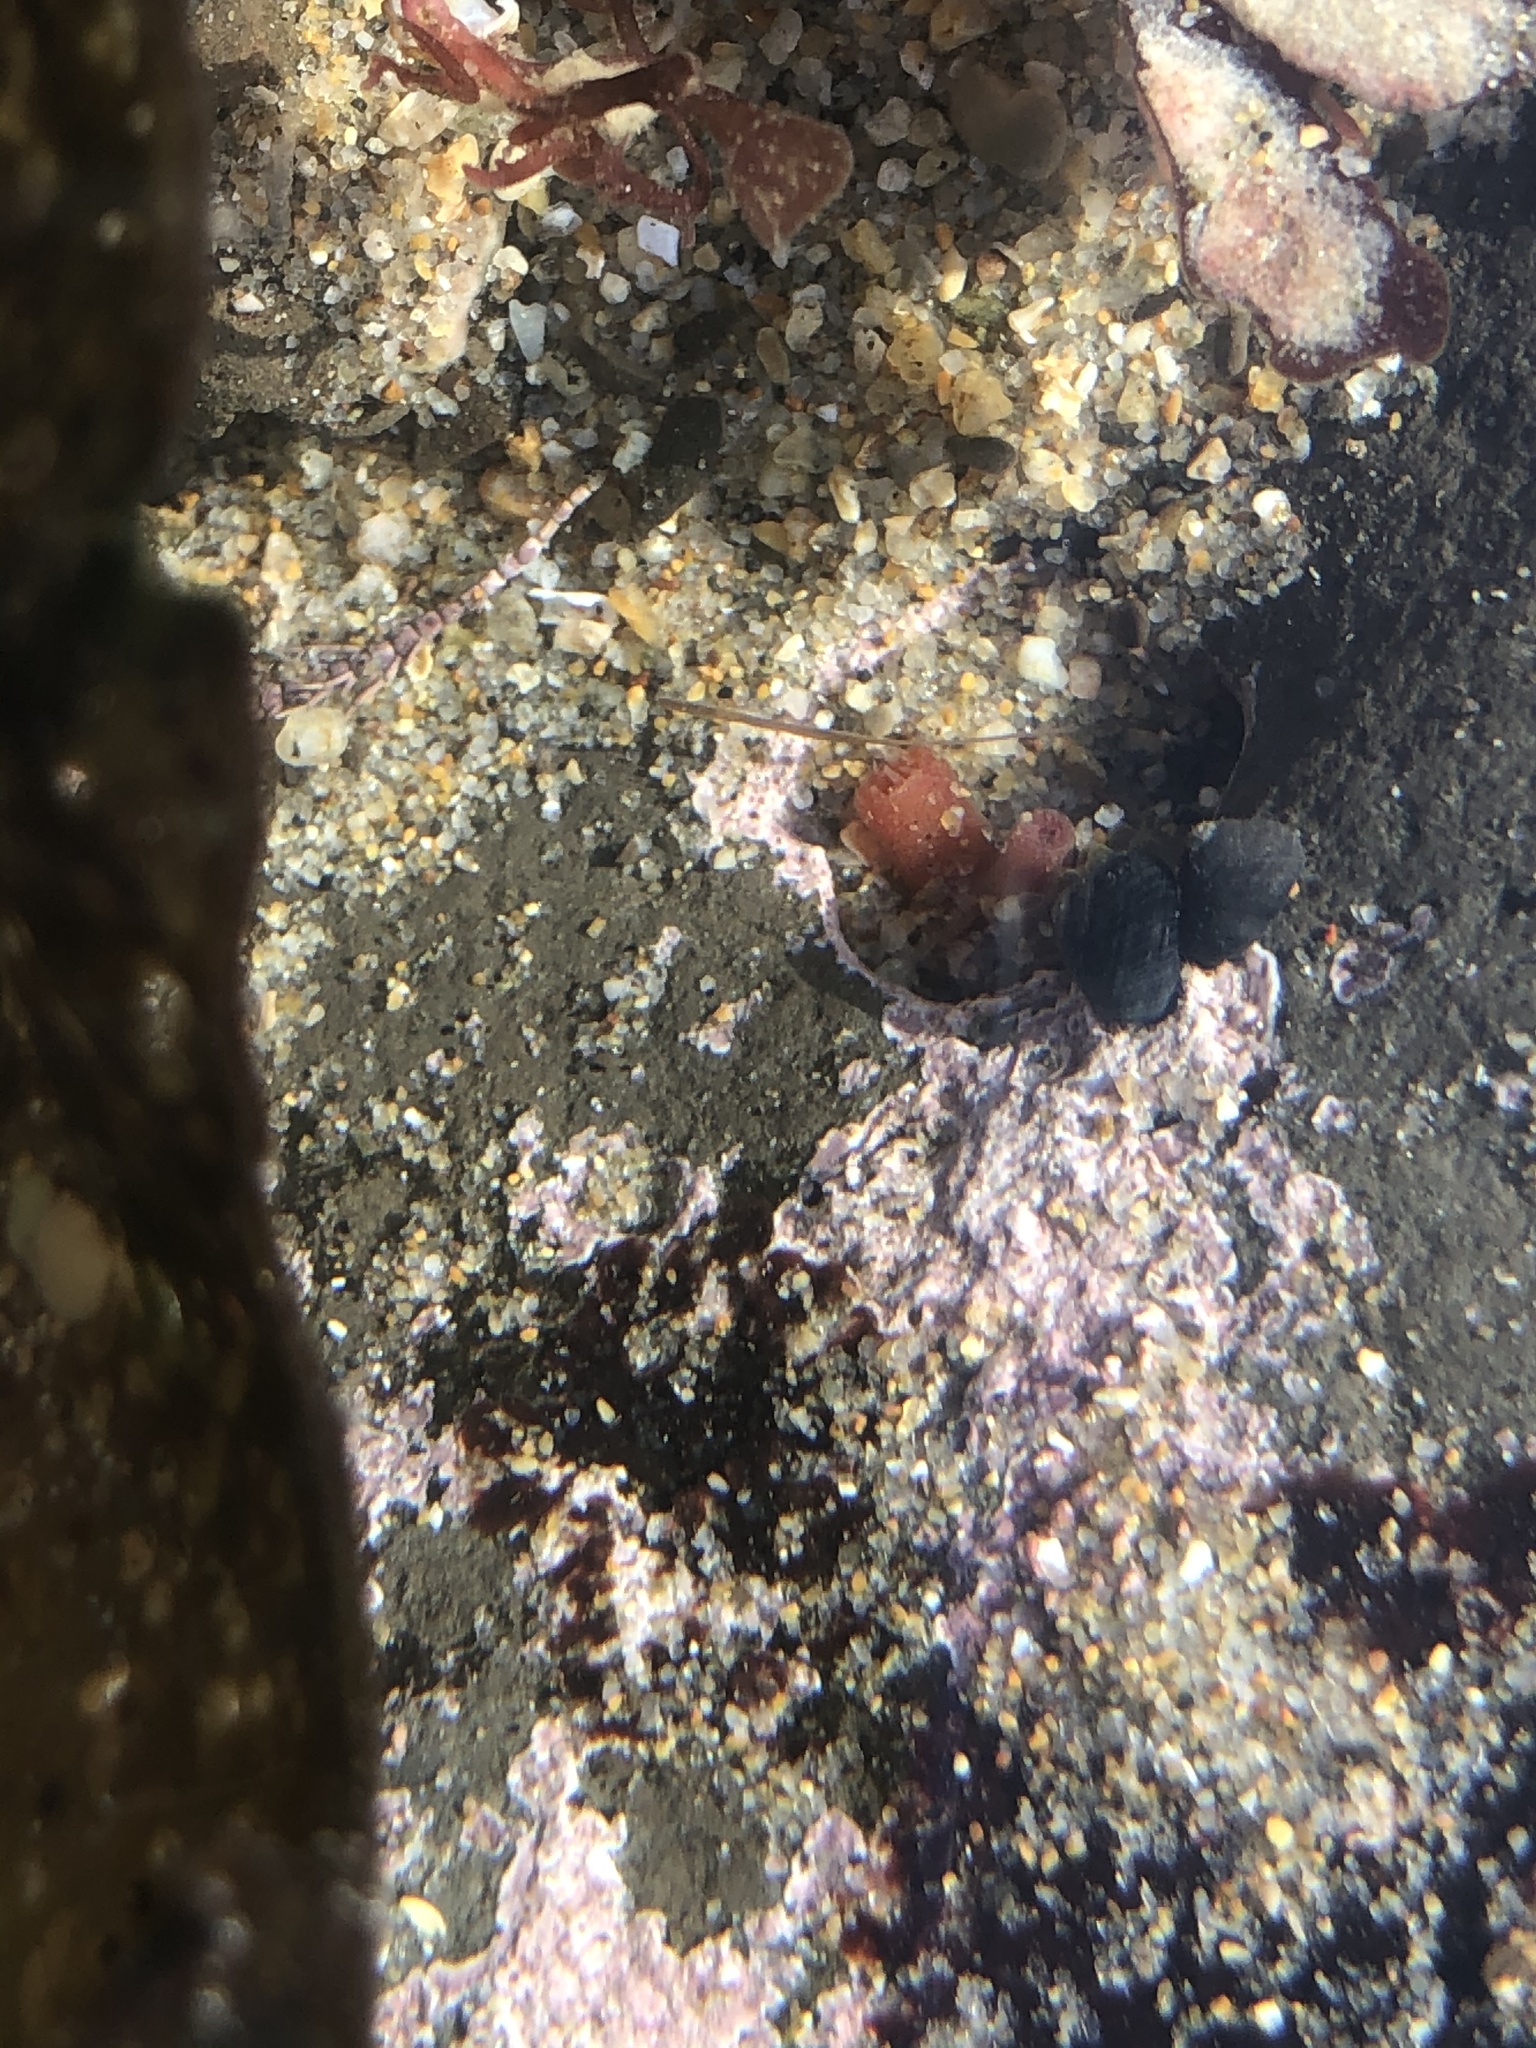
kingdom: Animalia
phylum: Mollusca
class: Bivalvia
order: Adapedonta
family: Hiatellidae
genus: Hiatella
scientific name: Hiatella arctica
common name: Arctic hiatella
